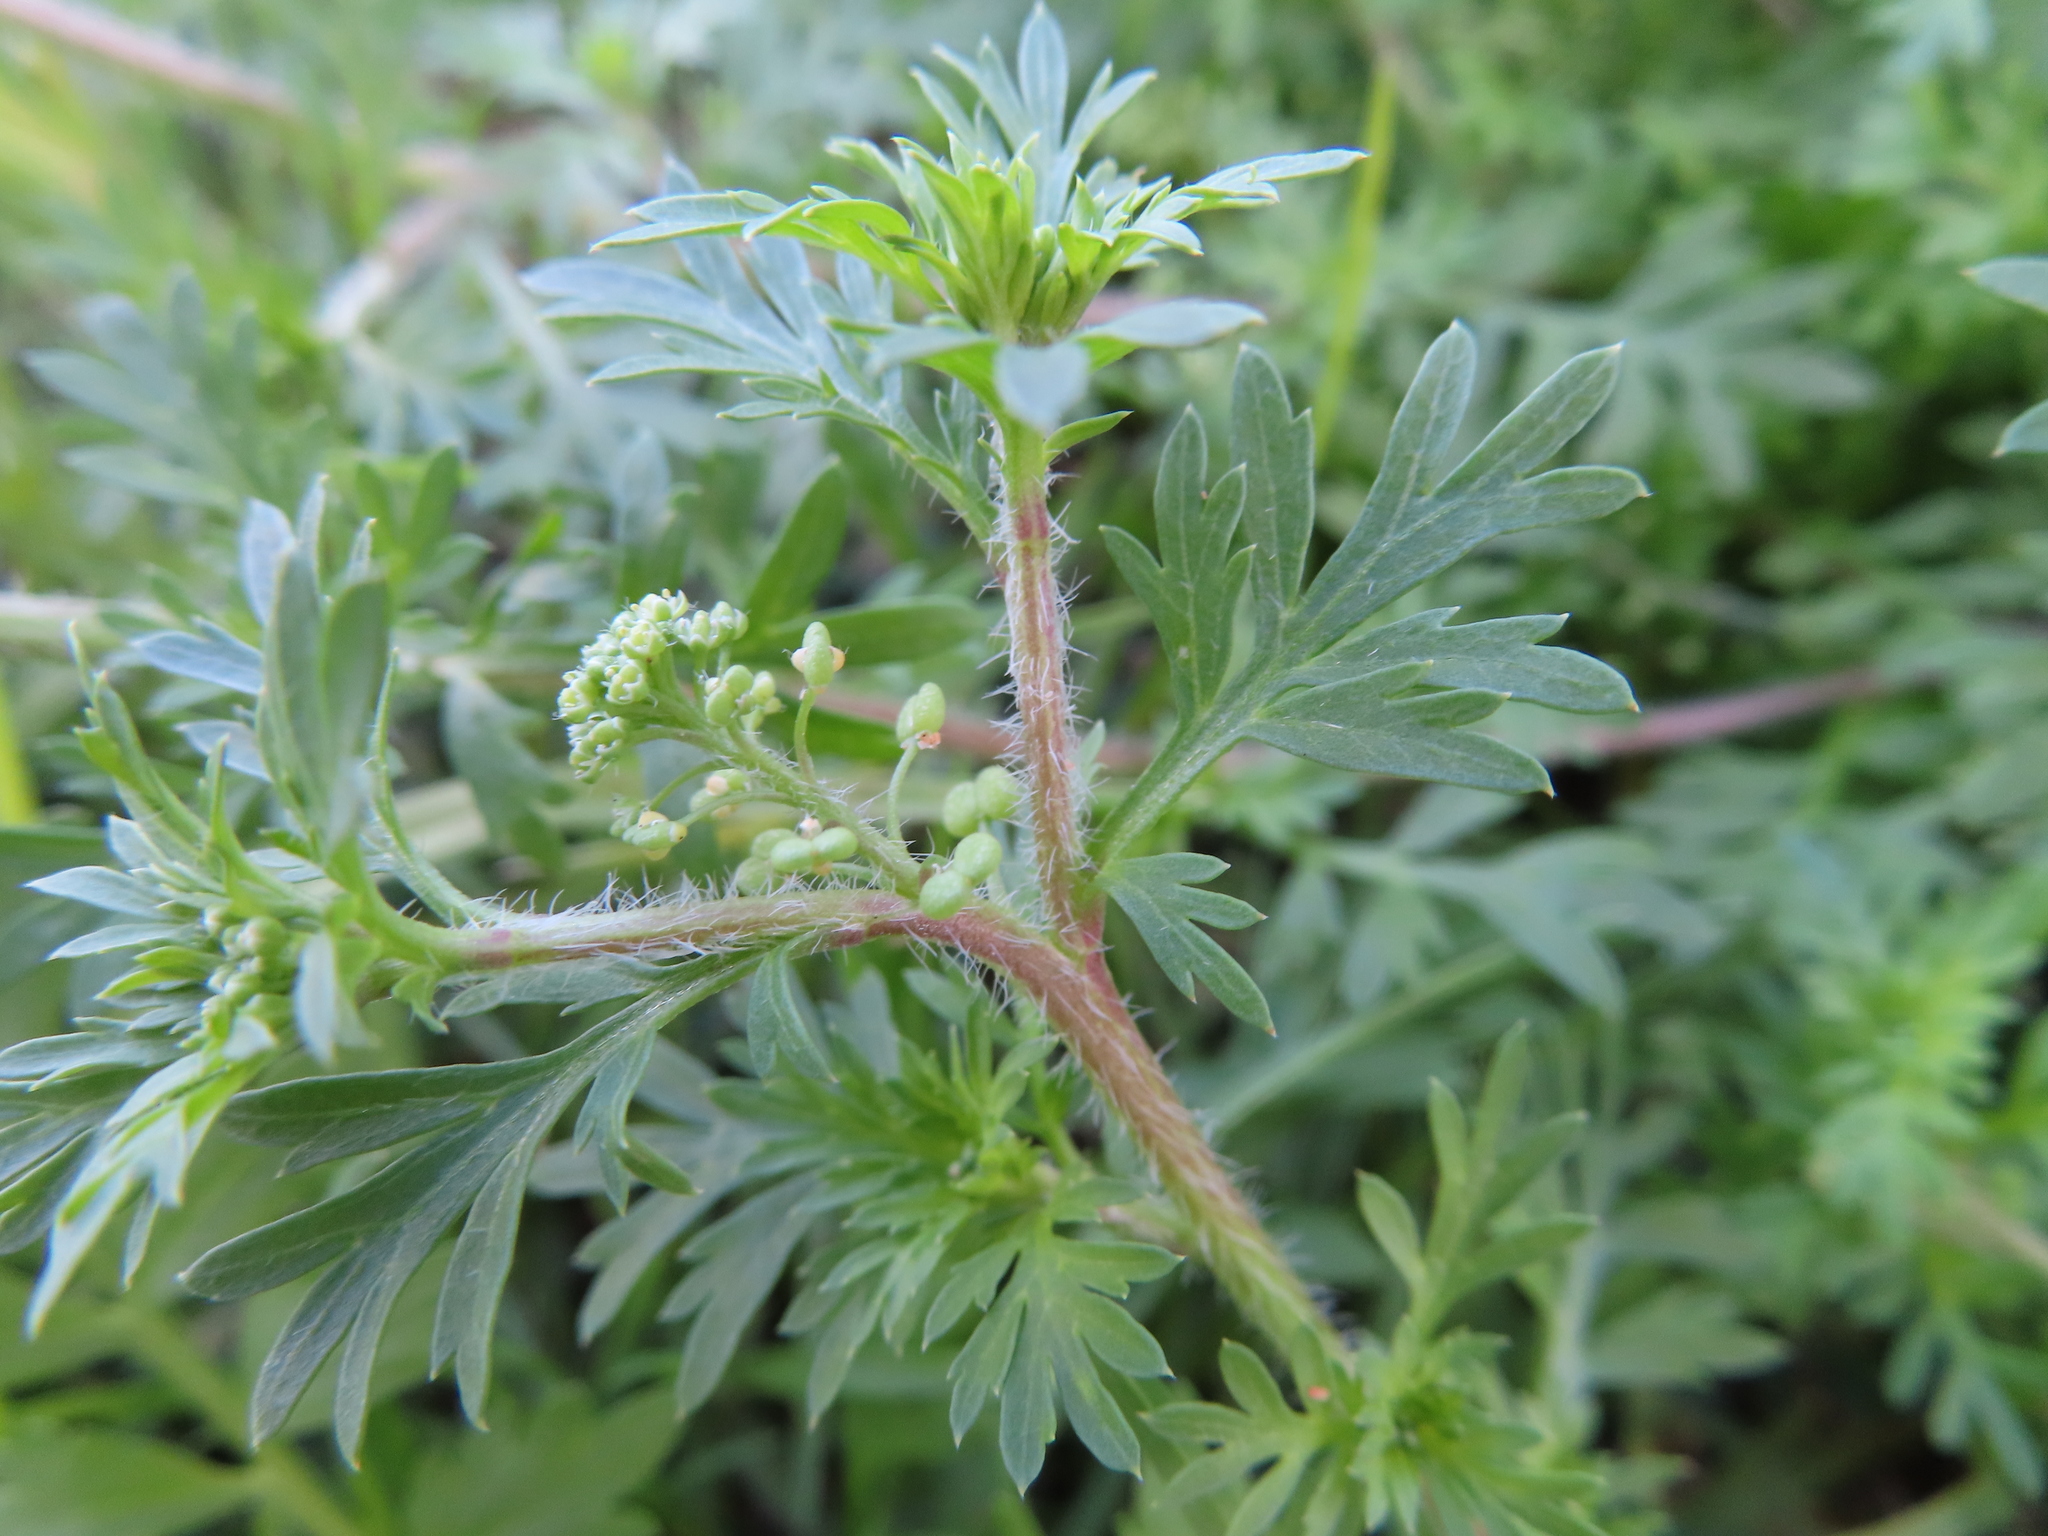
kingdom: Plantae
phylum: Tracheophyta
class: Magnoliopsida
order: Brassicales
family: Brassicaceae
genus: Lepidium
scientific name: Lepidium didymum
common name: Lesser swinecress
